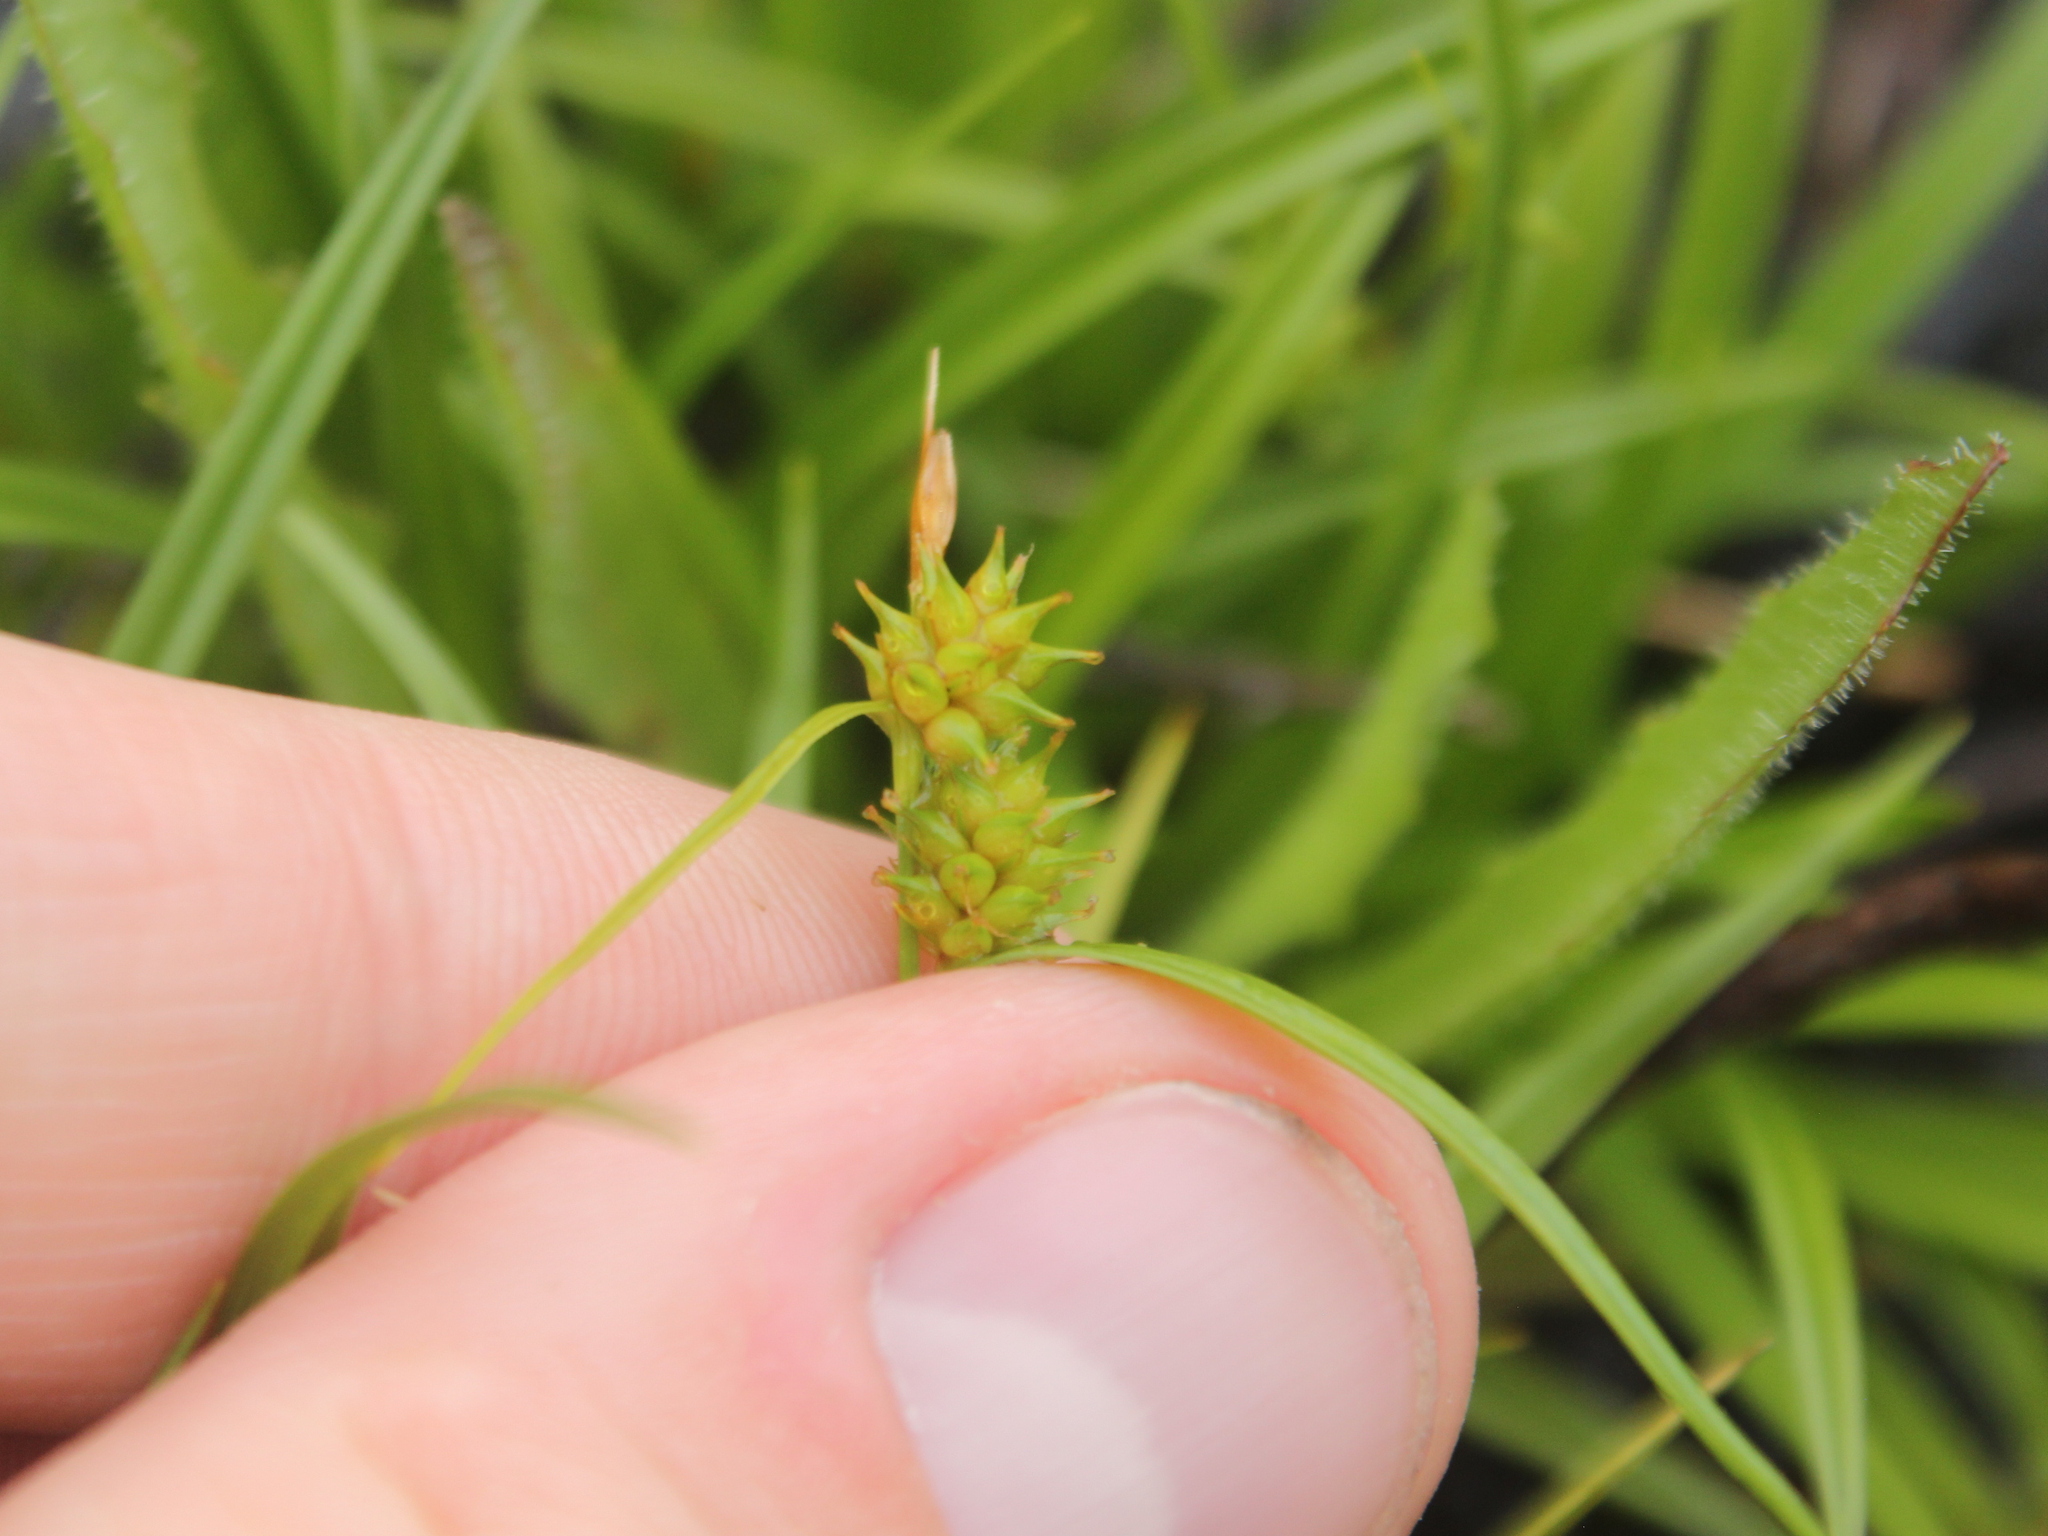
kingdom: Plantae
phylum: Tracheophyta
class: Liliopsida
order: Poales
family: Cyperaceae
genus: Carex
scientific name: Carex demissa
